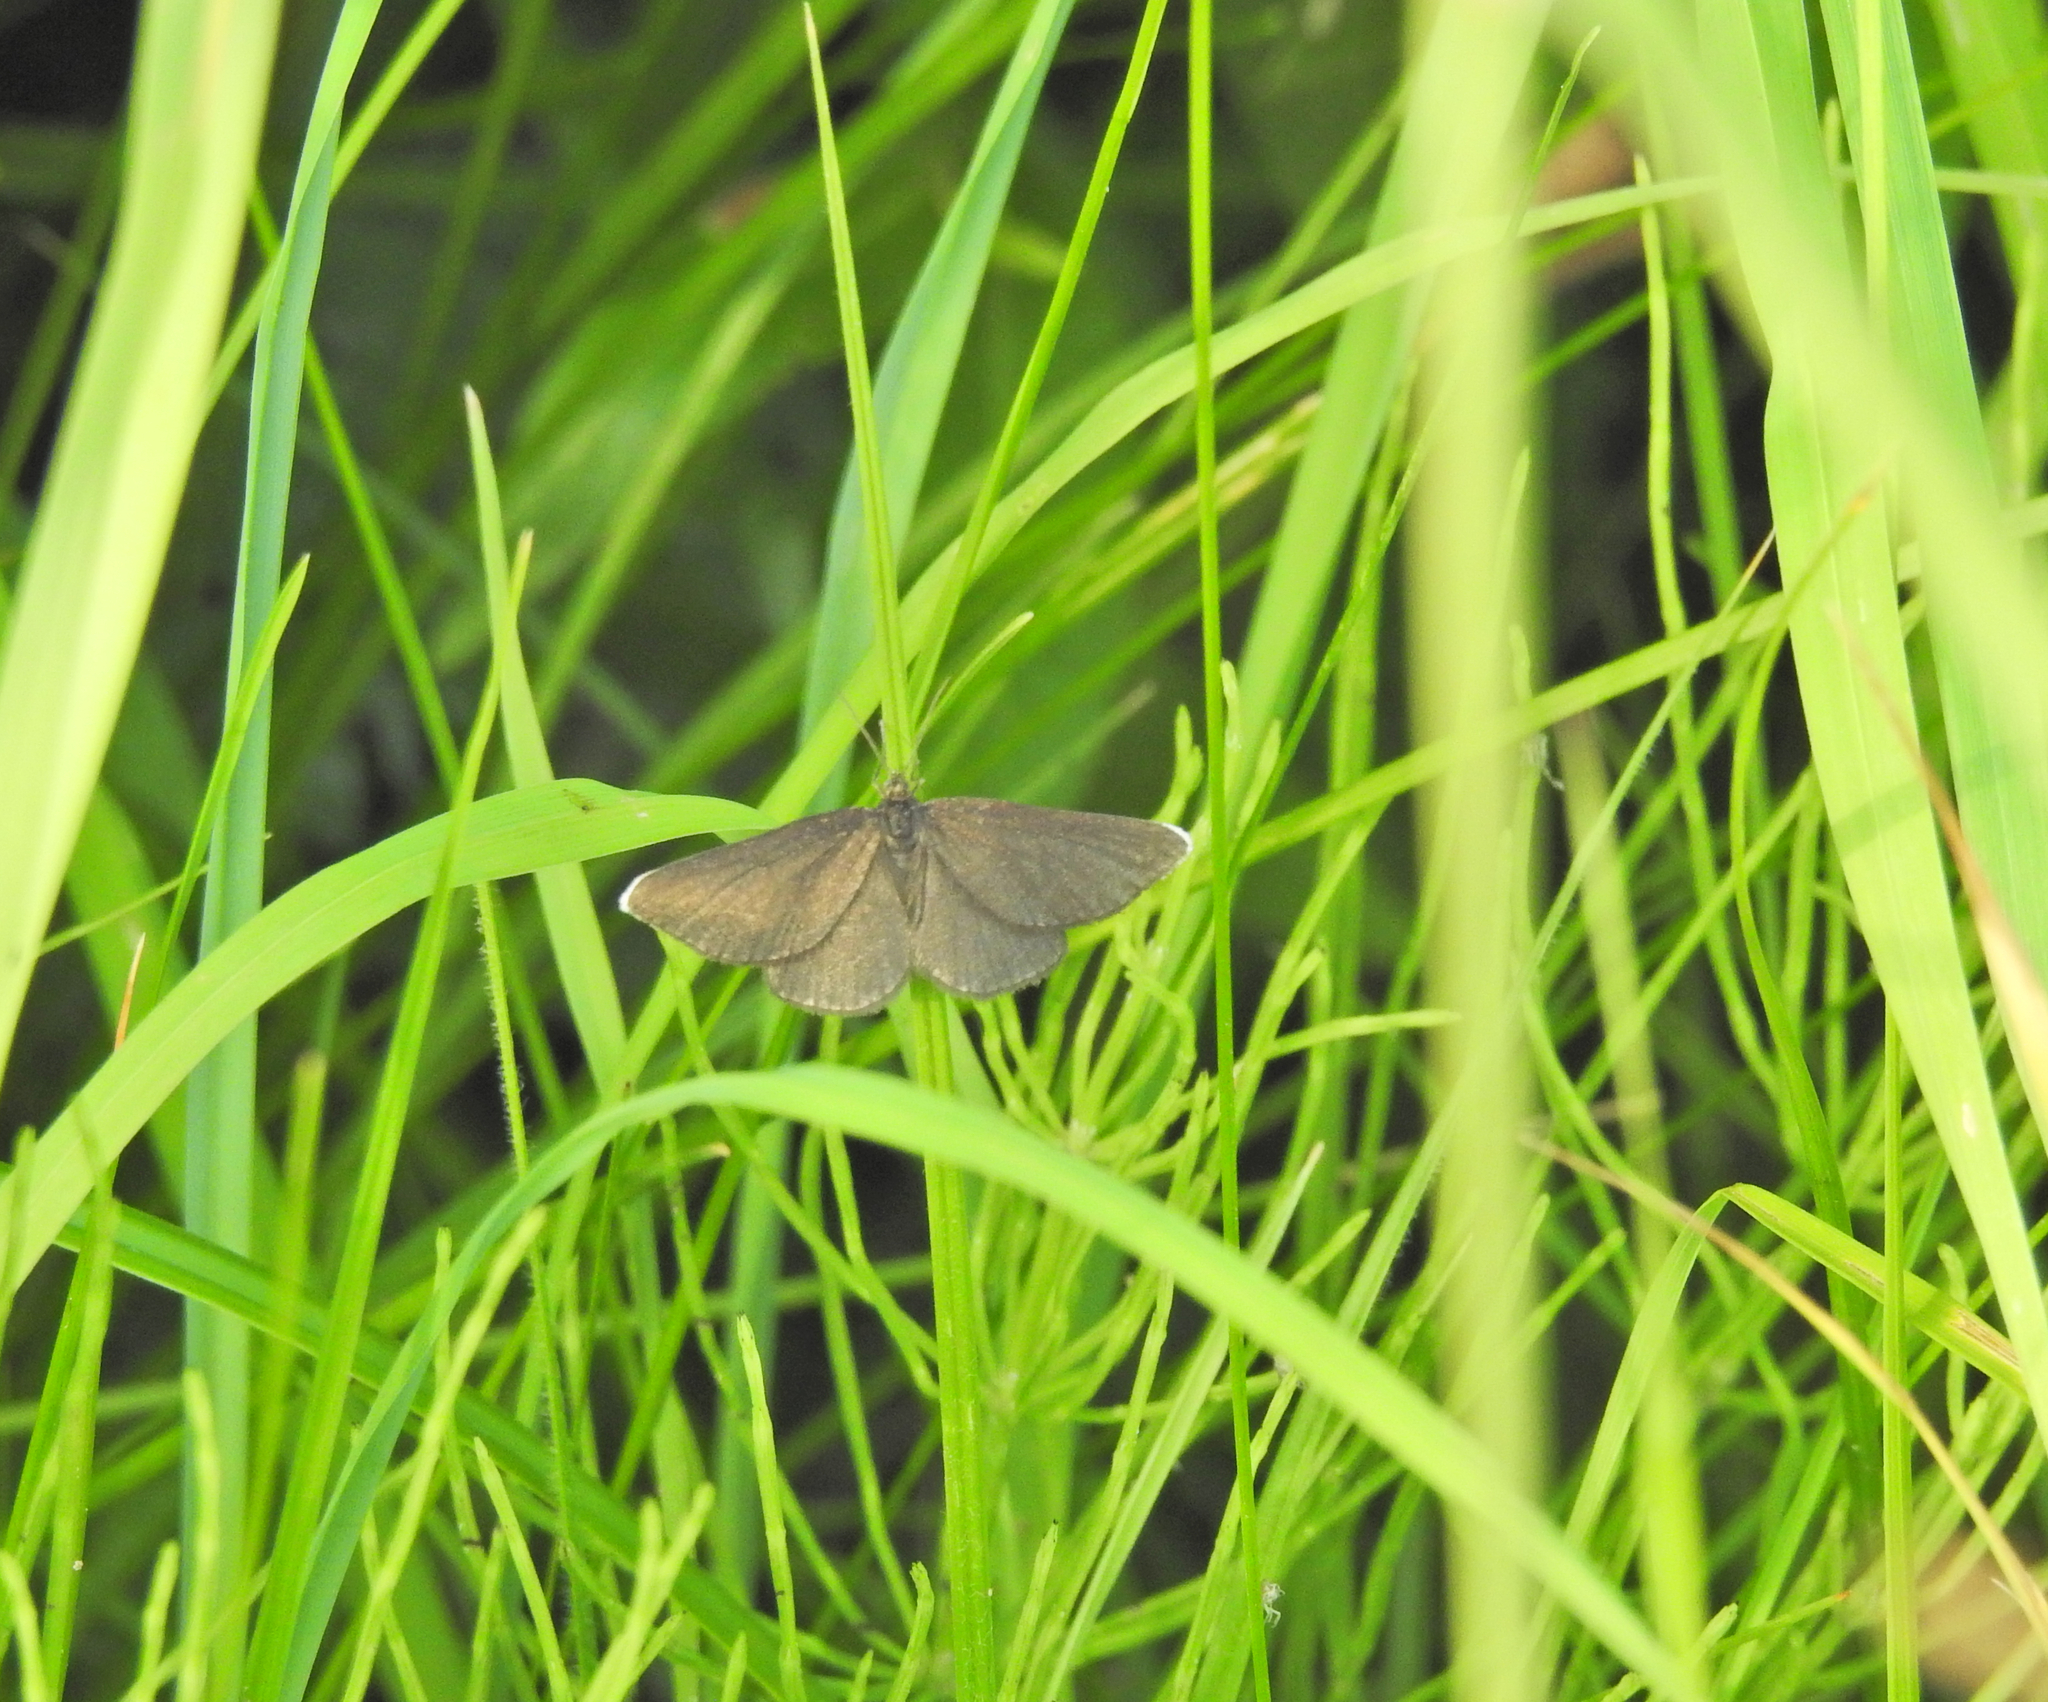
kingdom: Animalia
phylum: Arthropoda
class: Insecta
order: Lepidoptera
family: Geometridae
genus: Odezia
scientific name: Odezia atrata
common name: Chimney sweeper
